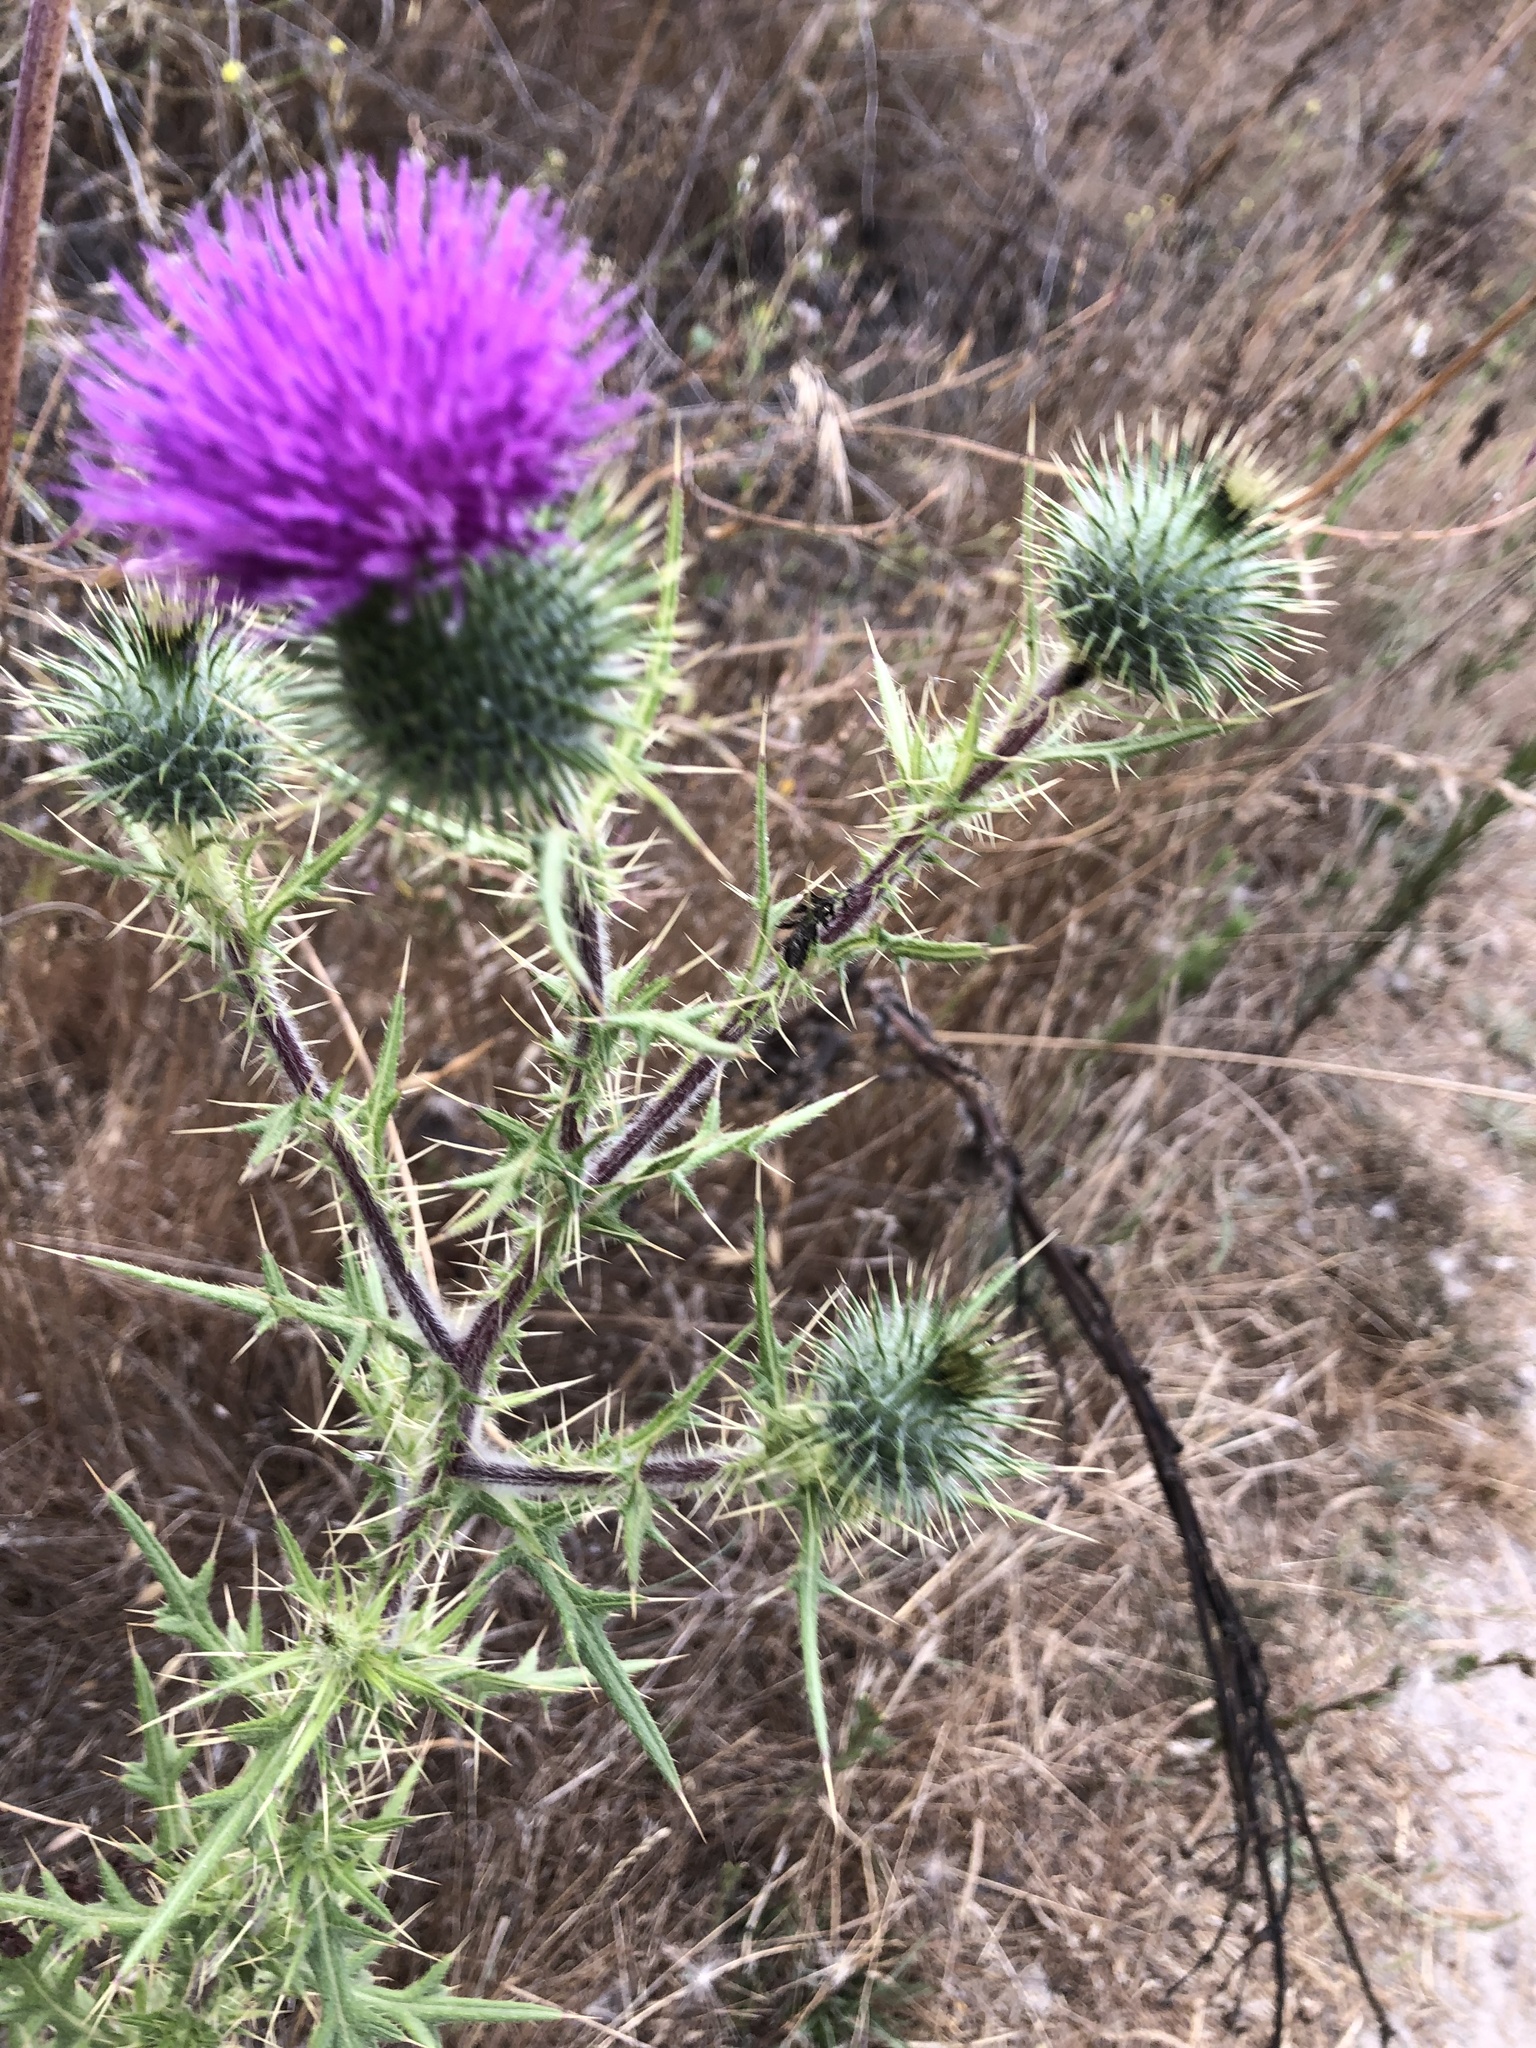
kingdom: Plantae
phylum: Tracheophyta
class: Magnoliopsida
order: Asterales
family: Asteraceae
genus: Cirsium
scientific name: Cirsium vulgare
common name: Bull thistle
